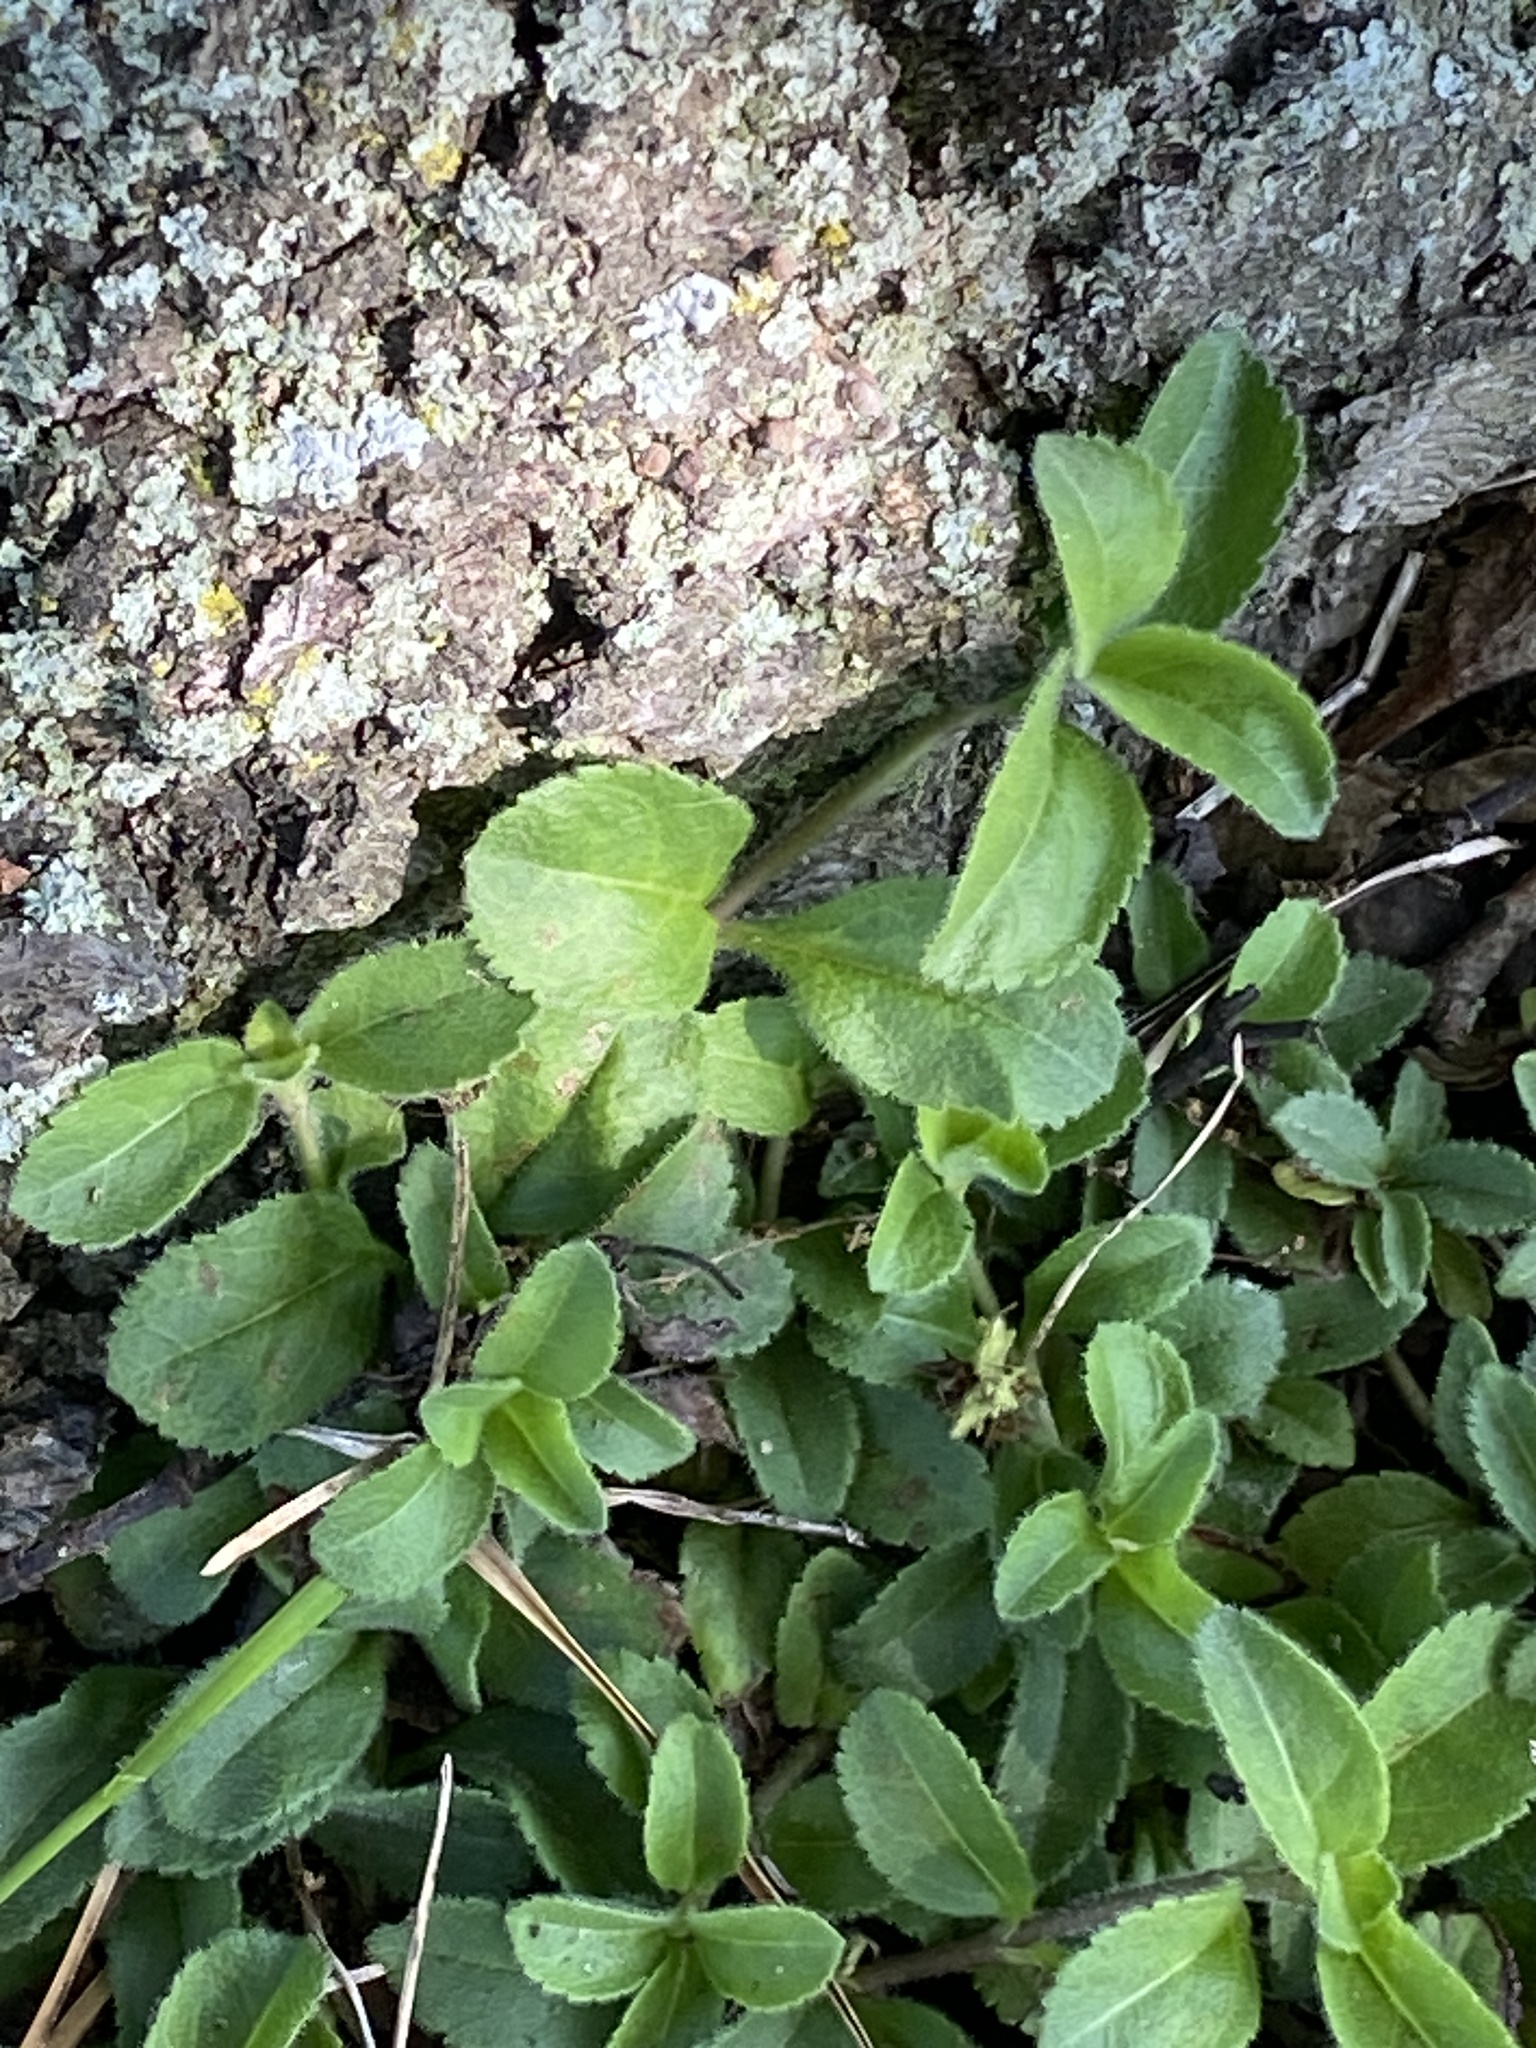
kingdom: Plantae
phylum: Tracheophyta
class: Magnoliopsida
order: Lamiales
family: Plantaginaceae
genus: Veronica
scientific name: Veronica officinalis
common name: Common speedwell
